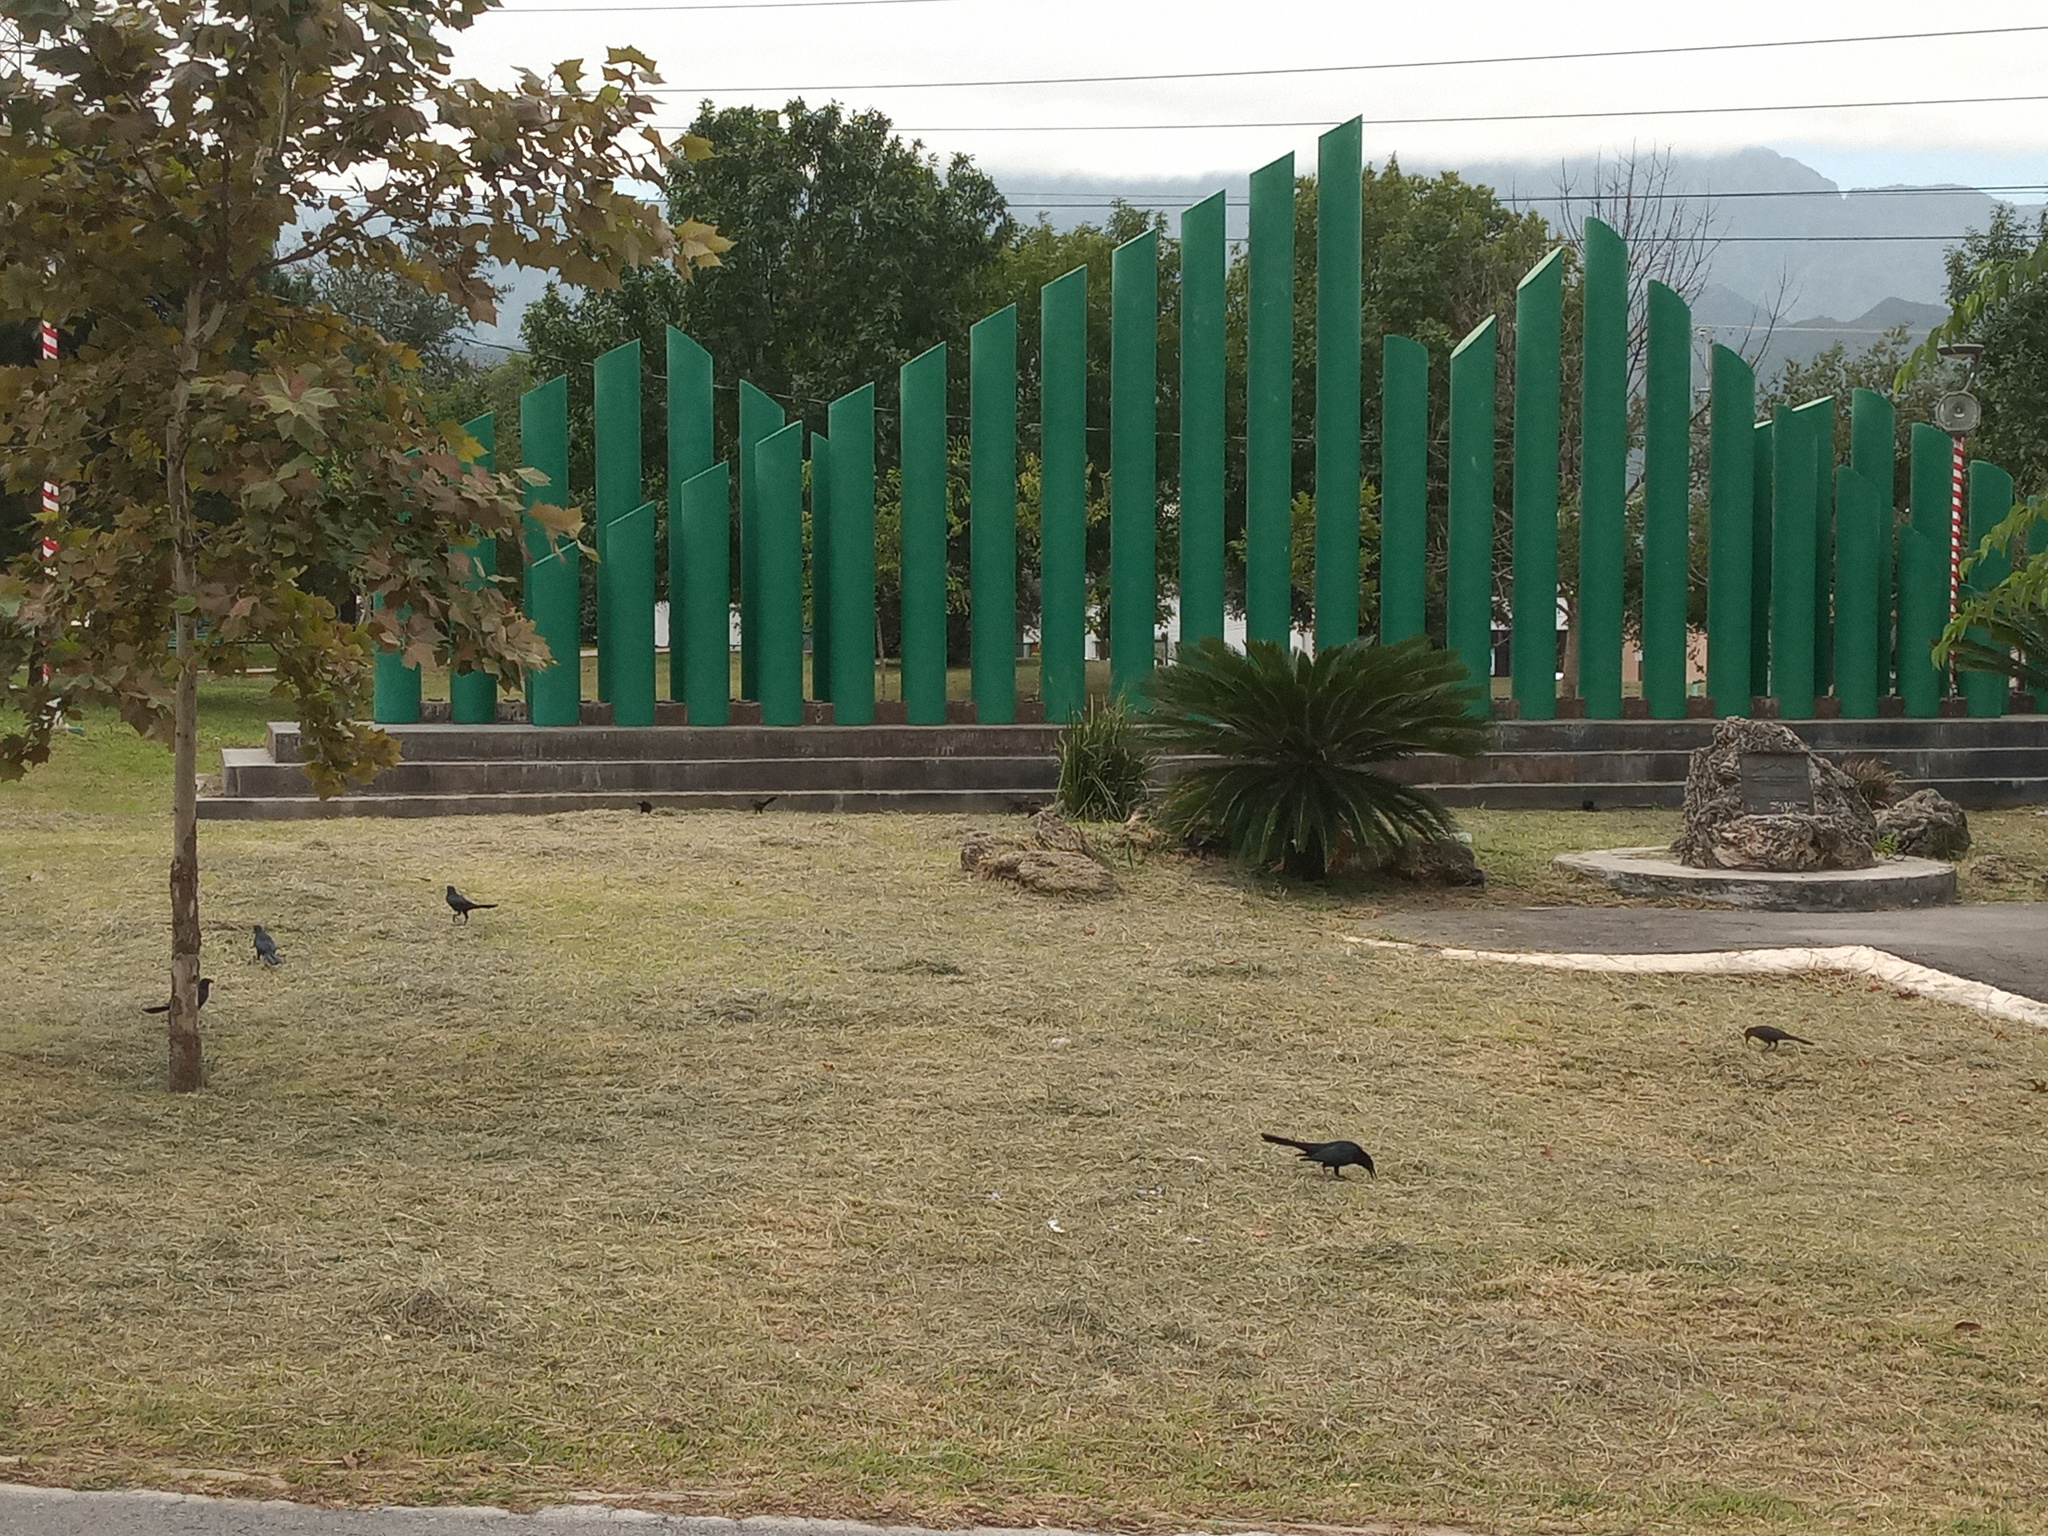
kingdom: Animalia
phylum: Chordata
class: Aves
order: Passeriformes
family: Icteridae
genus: Quiscalus
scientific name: Quiscalus mexicanus
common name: Great-tailed grackle
